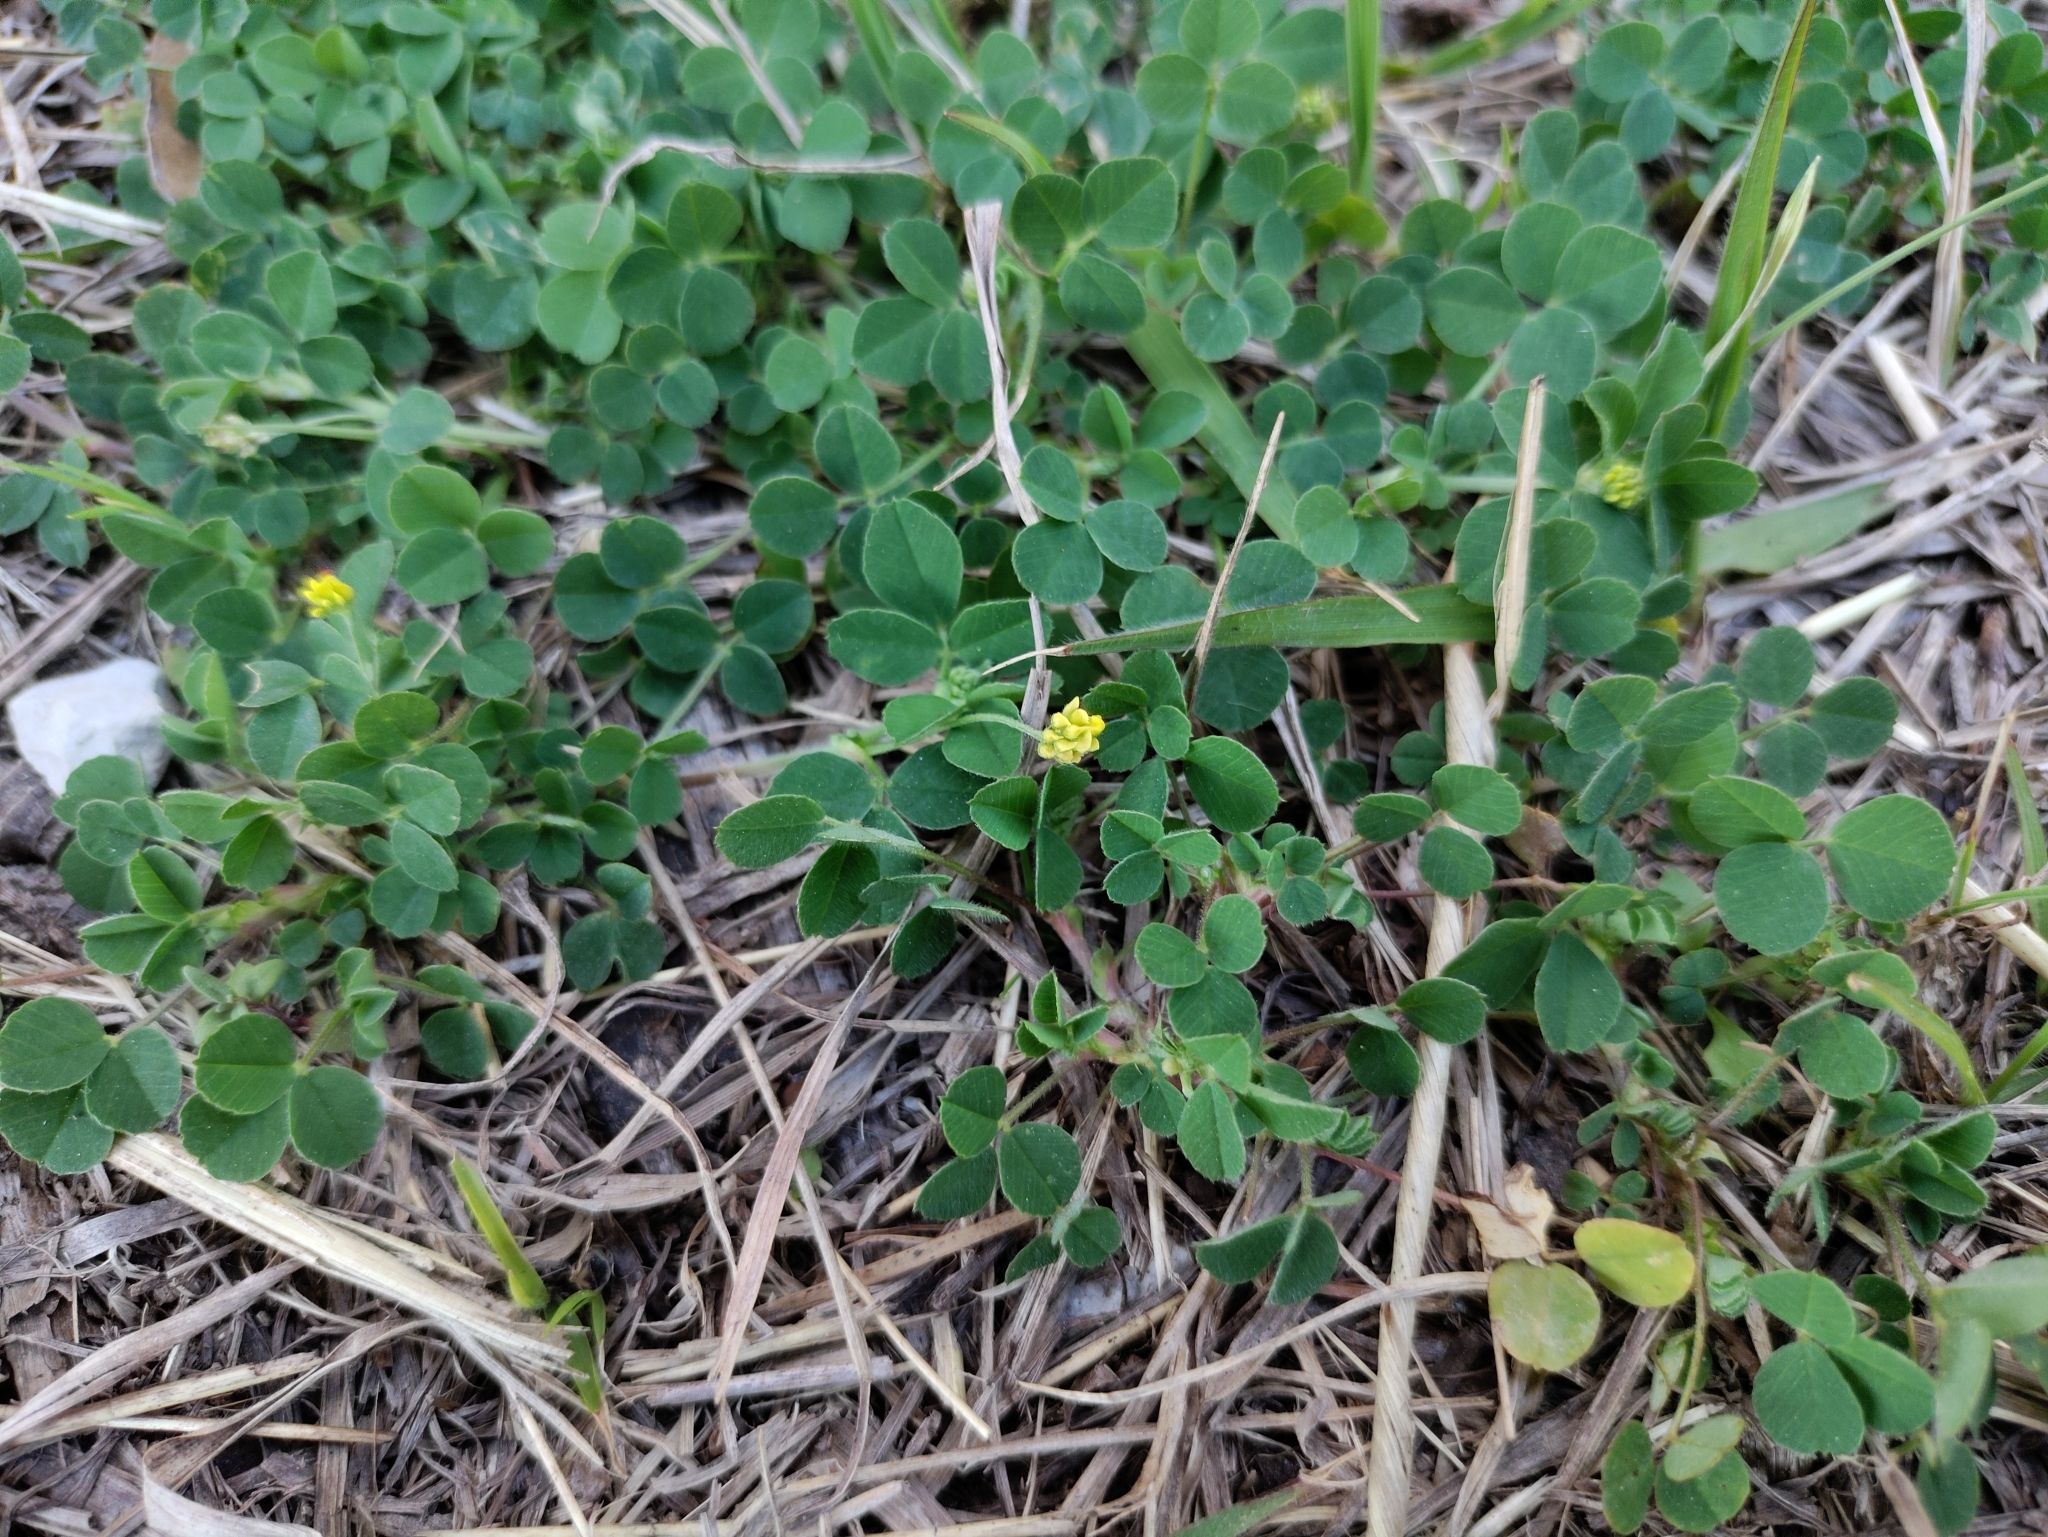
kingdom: Plantae
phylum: Tracheophyta
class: Magnoliopsida
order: Fabales
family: Fabaceae
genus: Medicago
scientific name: Medicago lupulina
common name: Black medick
